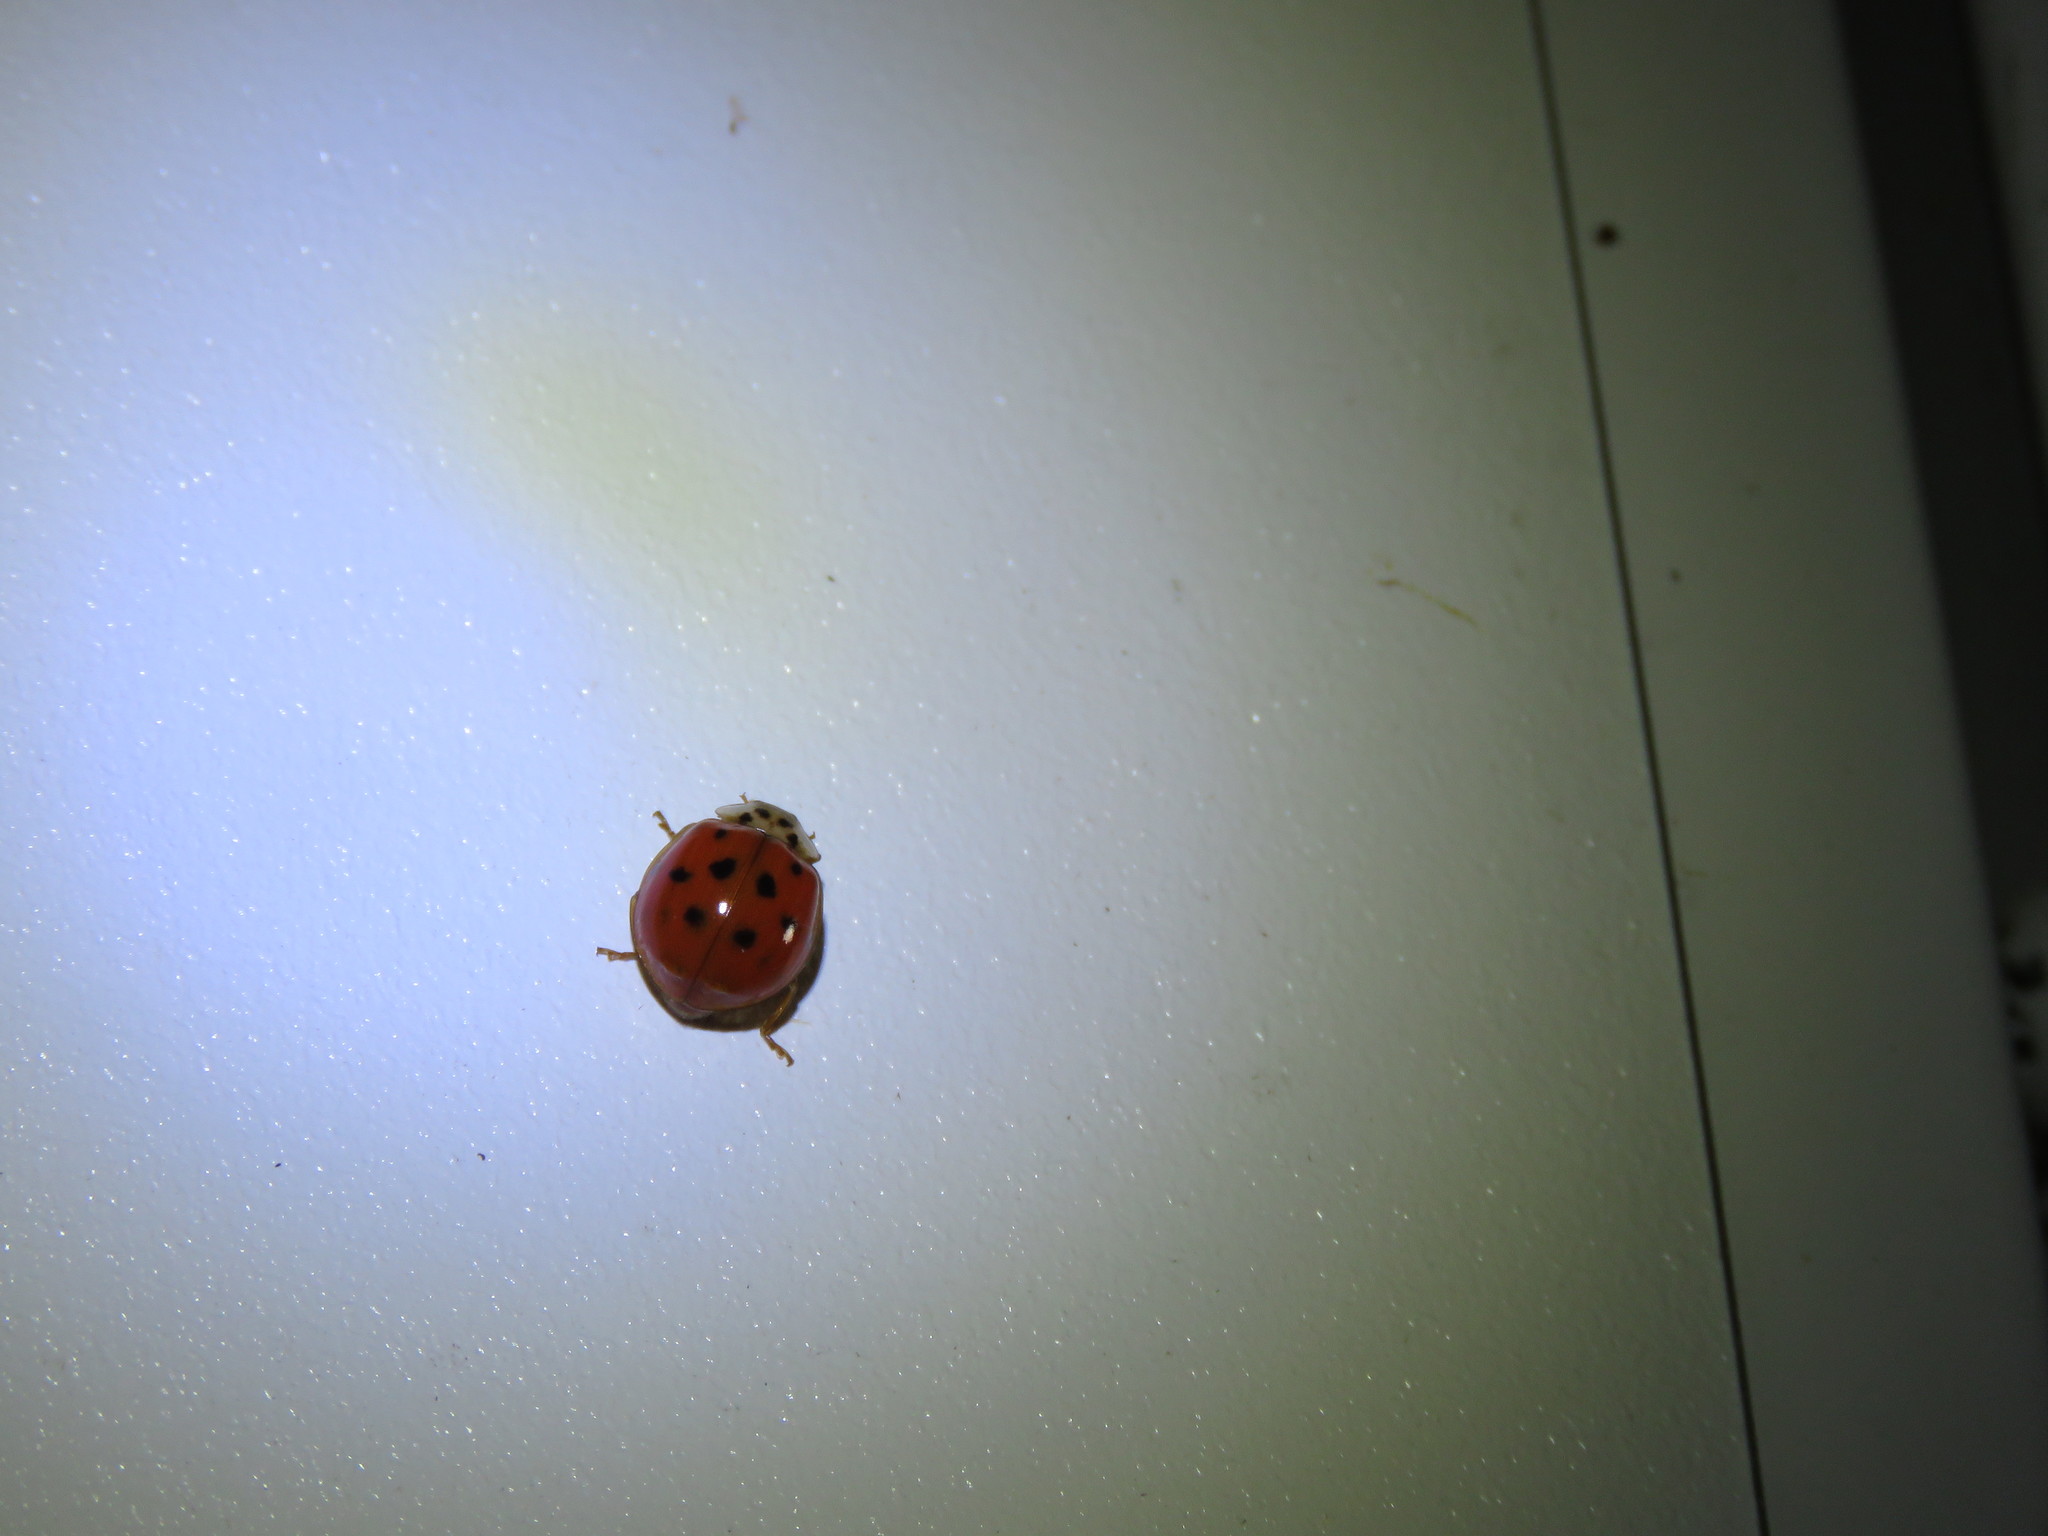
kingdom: Animalia
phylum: Arthropoda
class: Insecta
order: Coleoptera
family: Coccinellidae
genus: Harmonia
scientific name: Harmonia axyridis
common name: Harlequin ladybird
